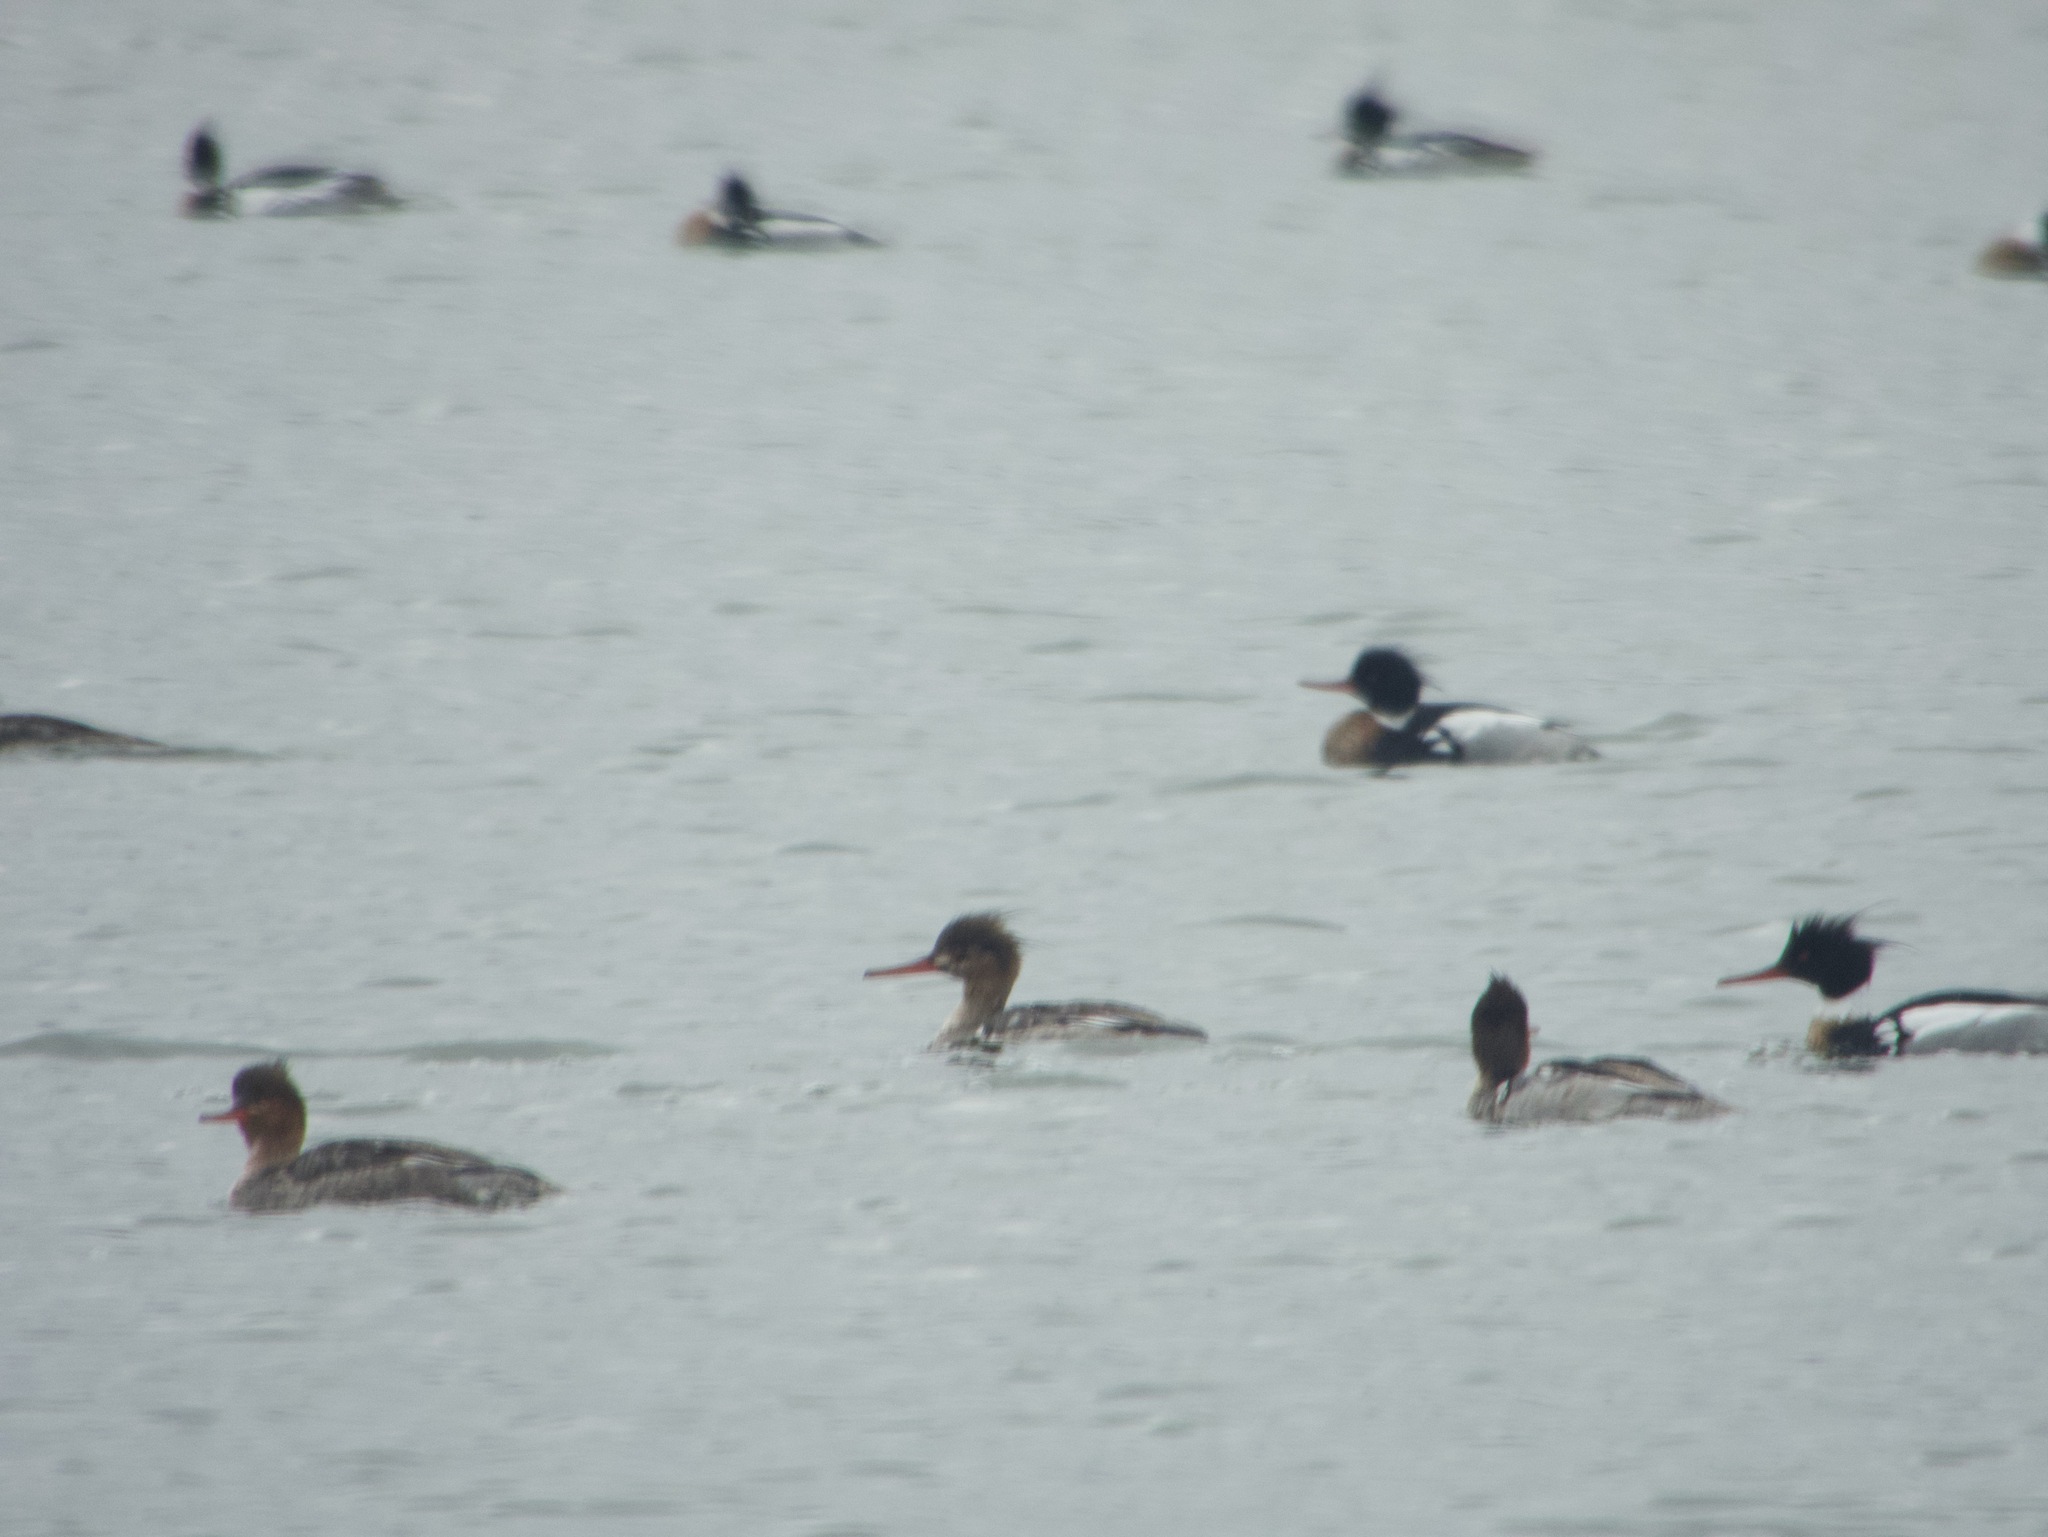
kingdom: Animalia
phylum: Chordata
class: Aves
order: Anseriformes
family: Anatidae
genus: Mergus
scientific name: Mergus serrator
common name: Red-breasted merganser
